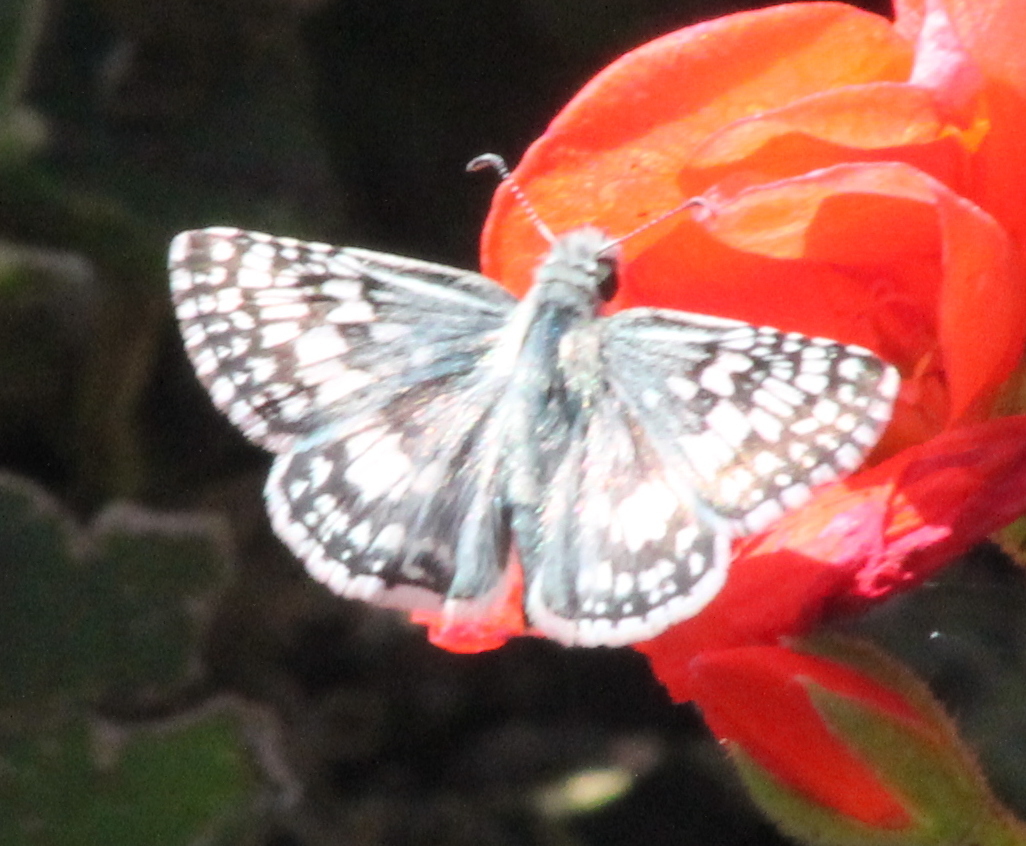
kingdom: Animalia
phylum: Arthropoda
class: Insecta
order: Lepidoptera
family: Hesperiidae
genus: Burnsius
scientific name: Burnsius communis
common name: Common checkered-skipper
